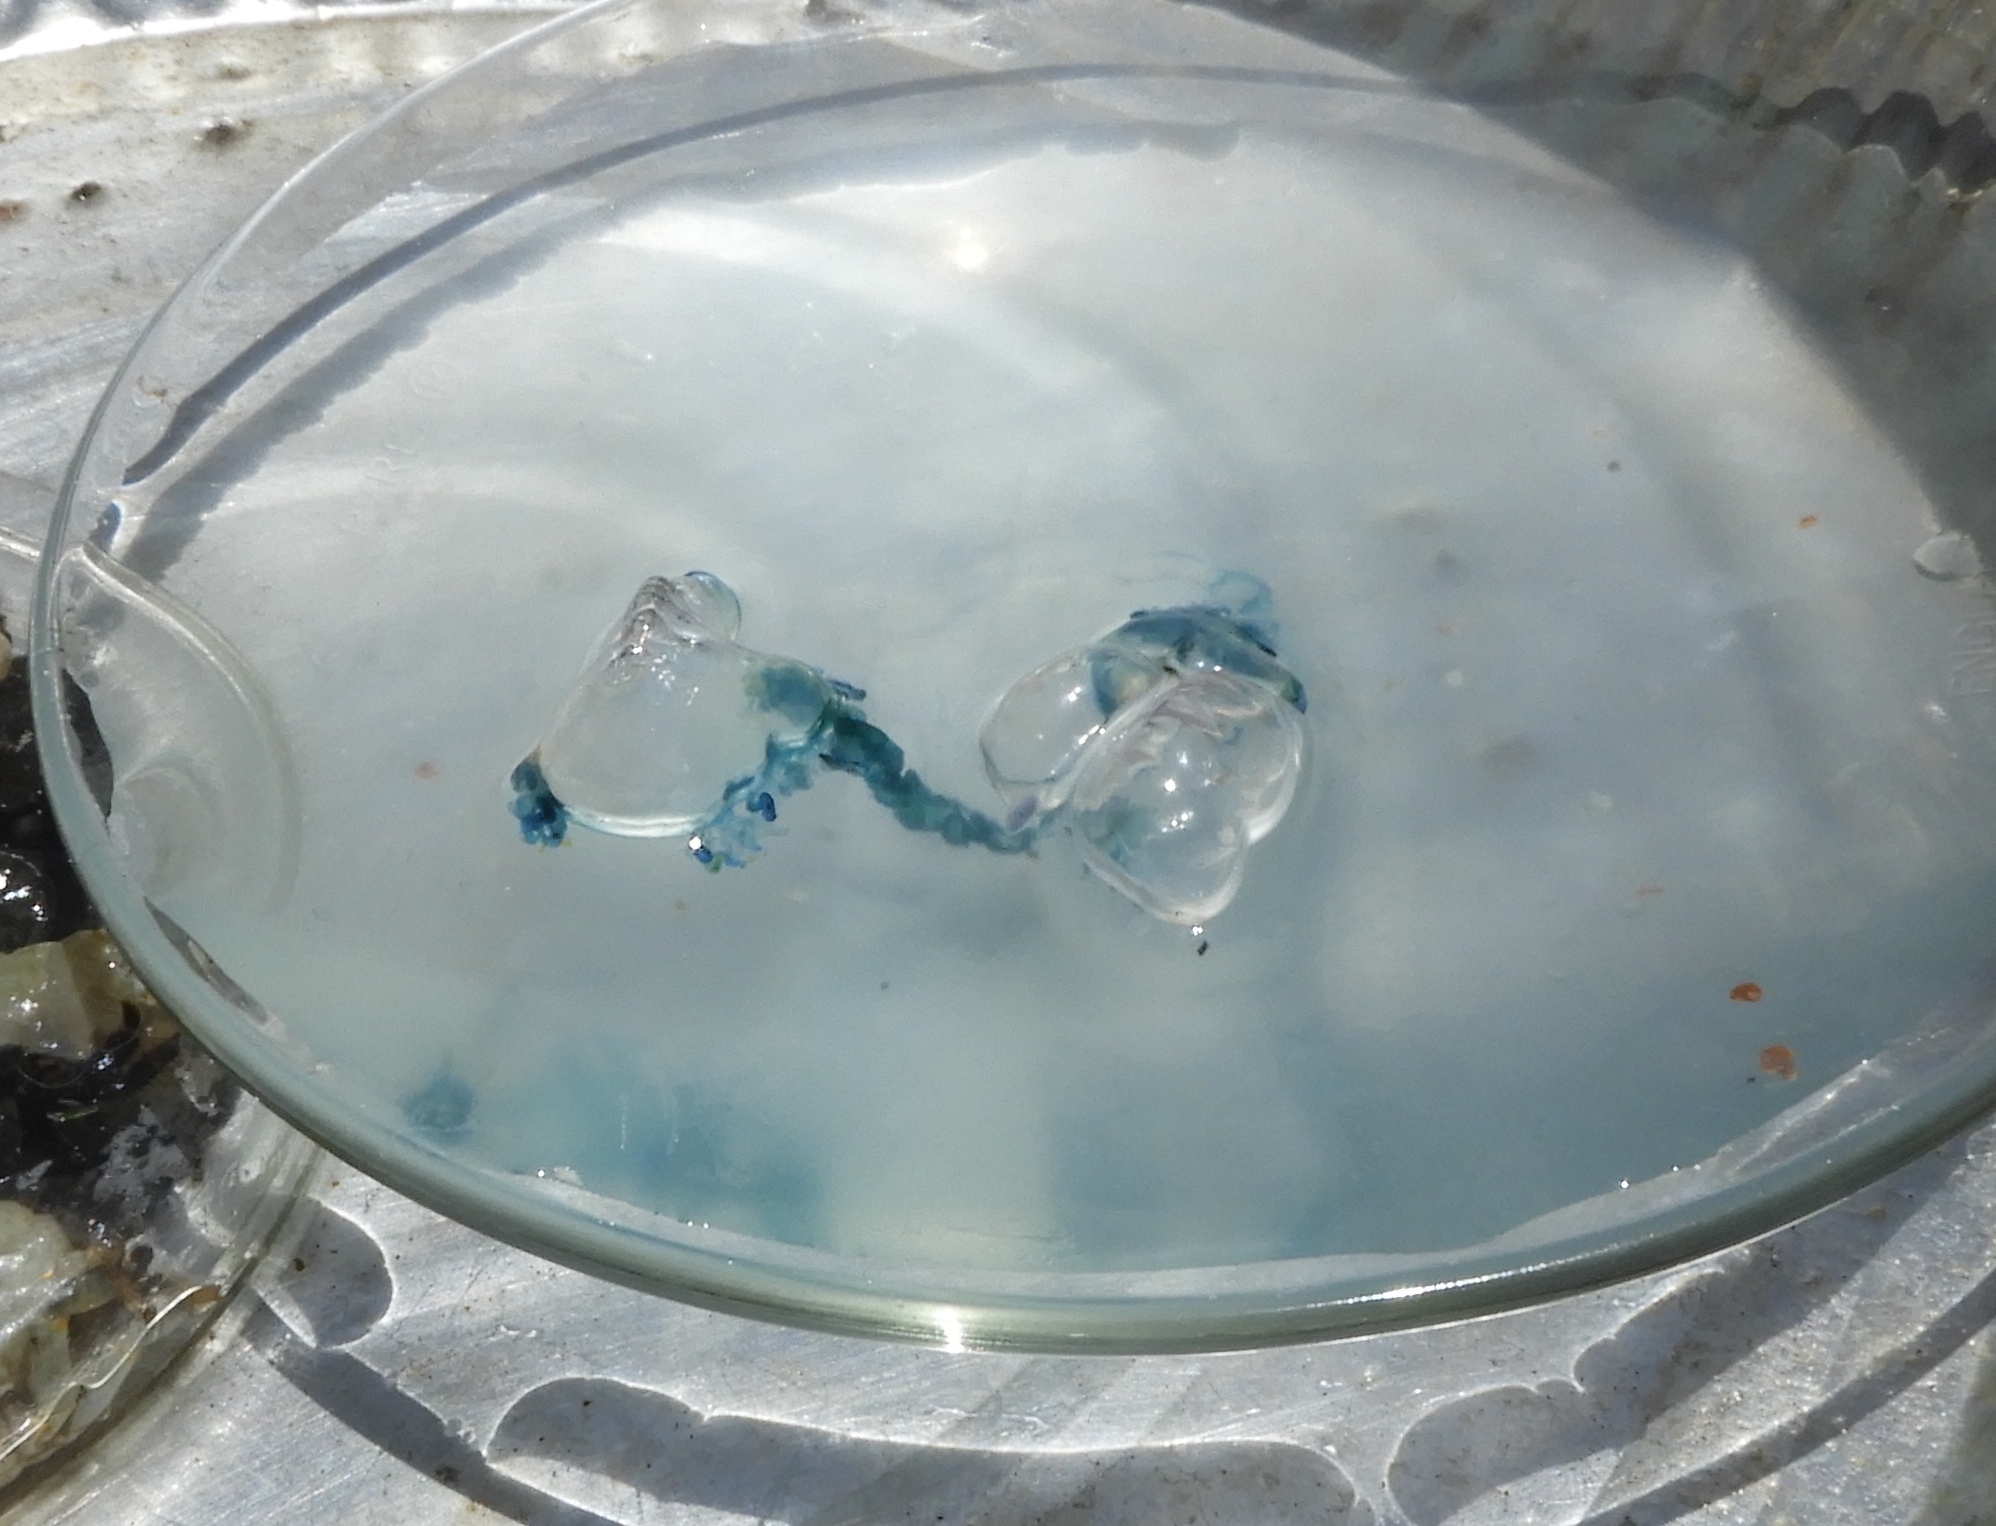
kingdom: Animalia
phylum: Cnidaria
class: Hydrozoa
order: Siphonophorae
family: Physaliidae
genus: Physalia
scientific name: Physalia physalis
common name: Portuguese man-of-war
